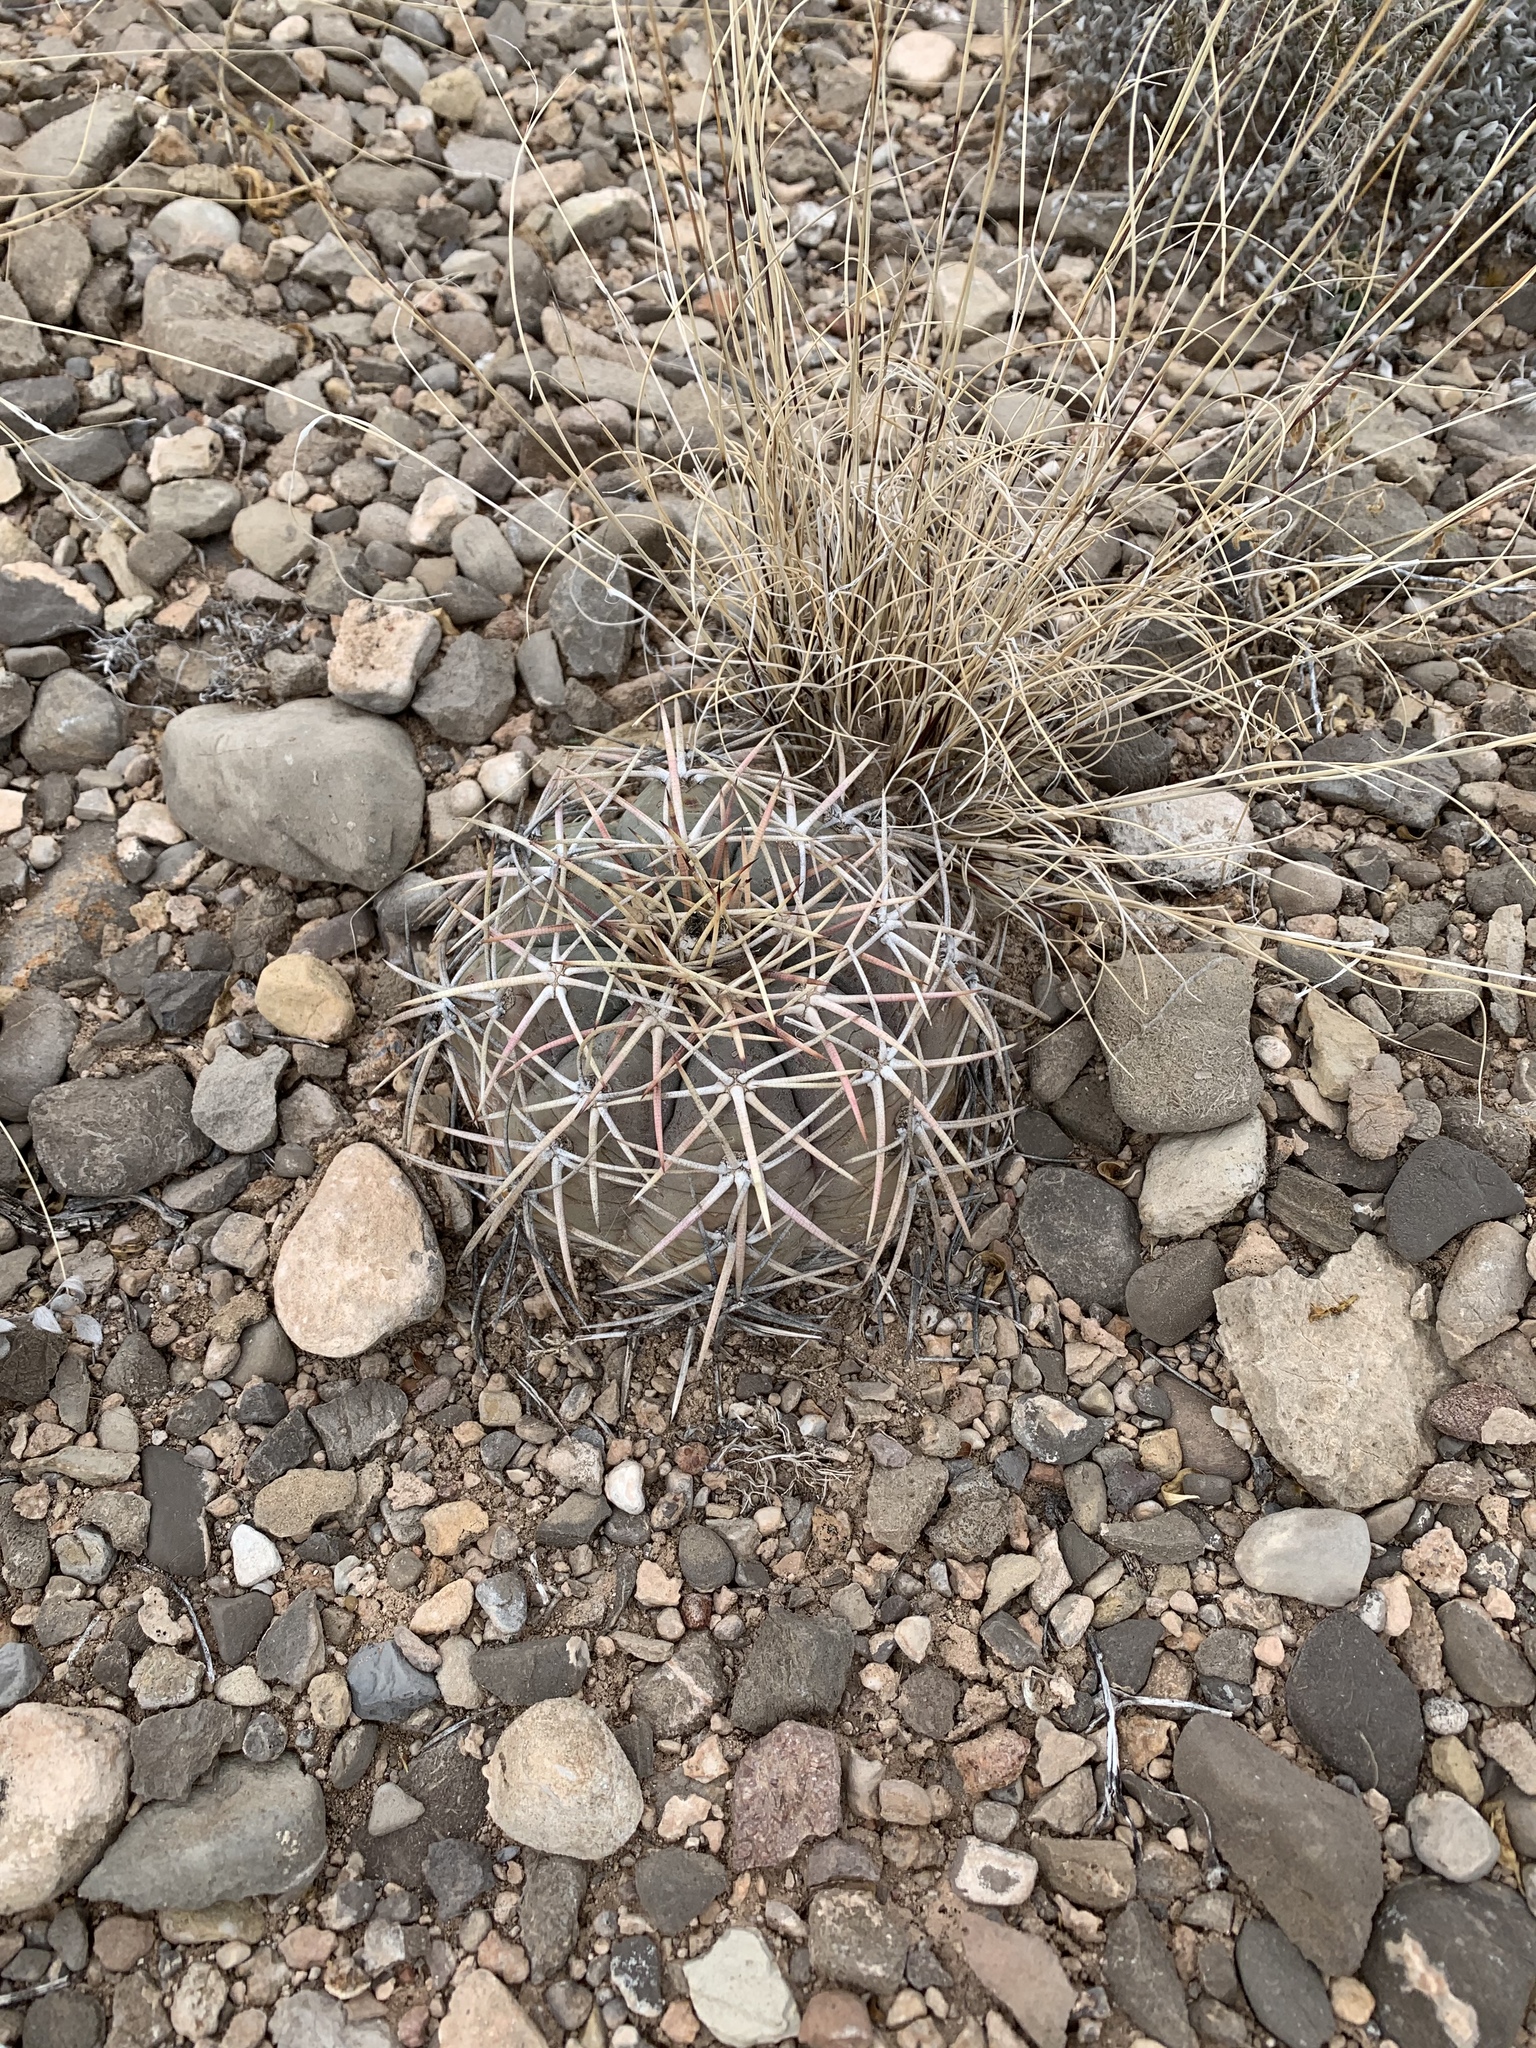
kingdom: Plantae
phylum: Tracheophyta
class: Magnoliopsida
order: Caryophyllales
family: Cactaceae
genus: Echinocactus
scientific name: Echinocactus horizonthalonius
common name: Devilshead
